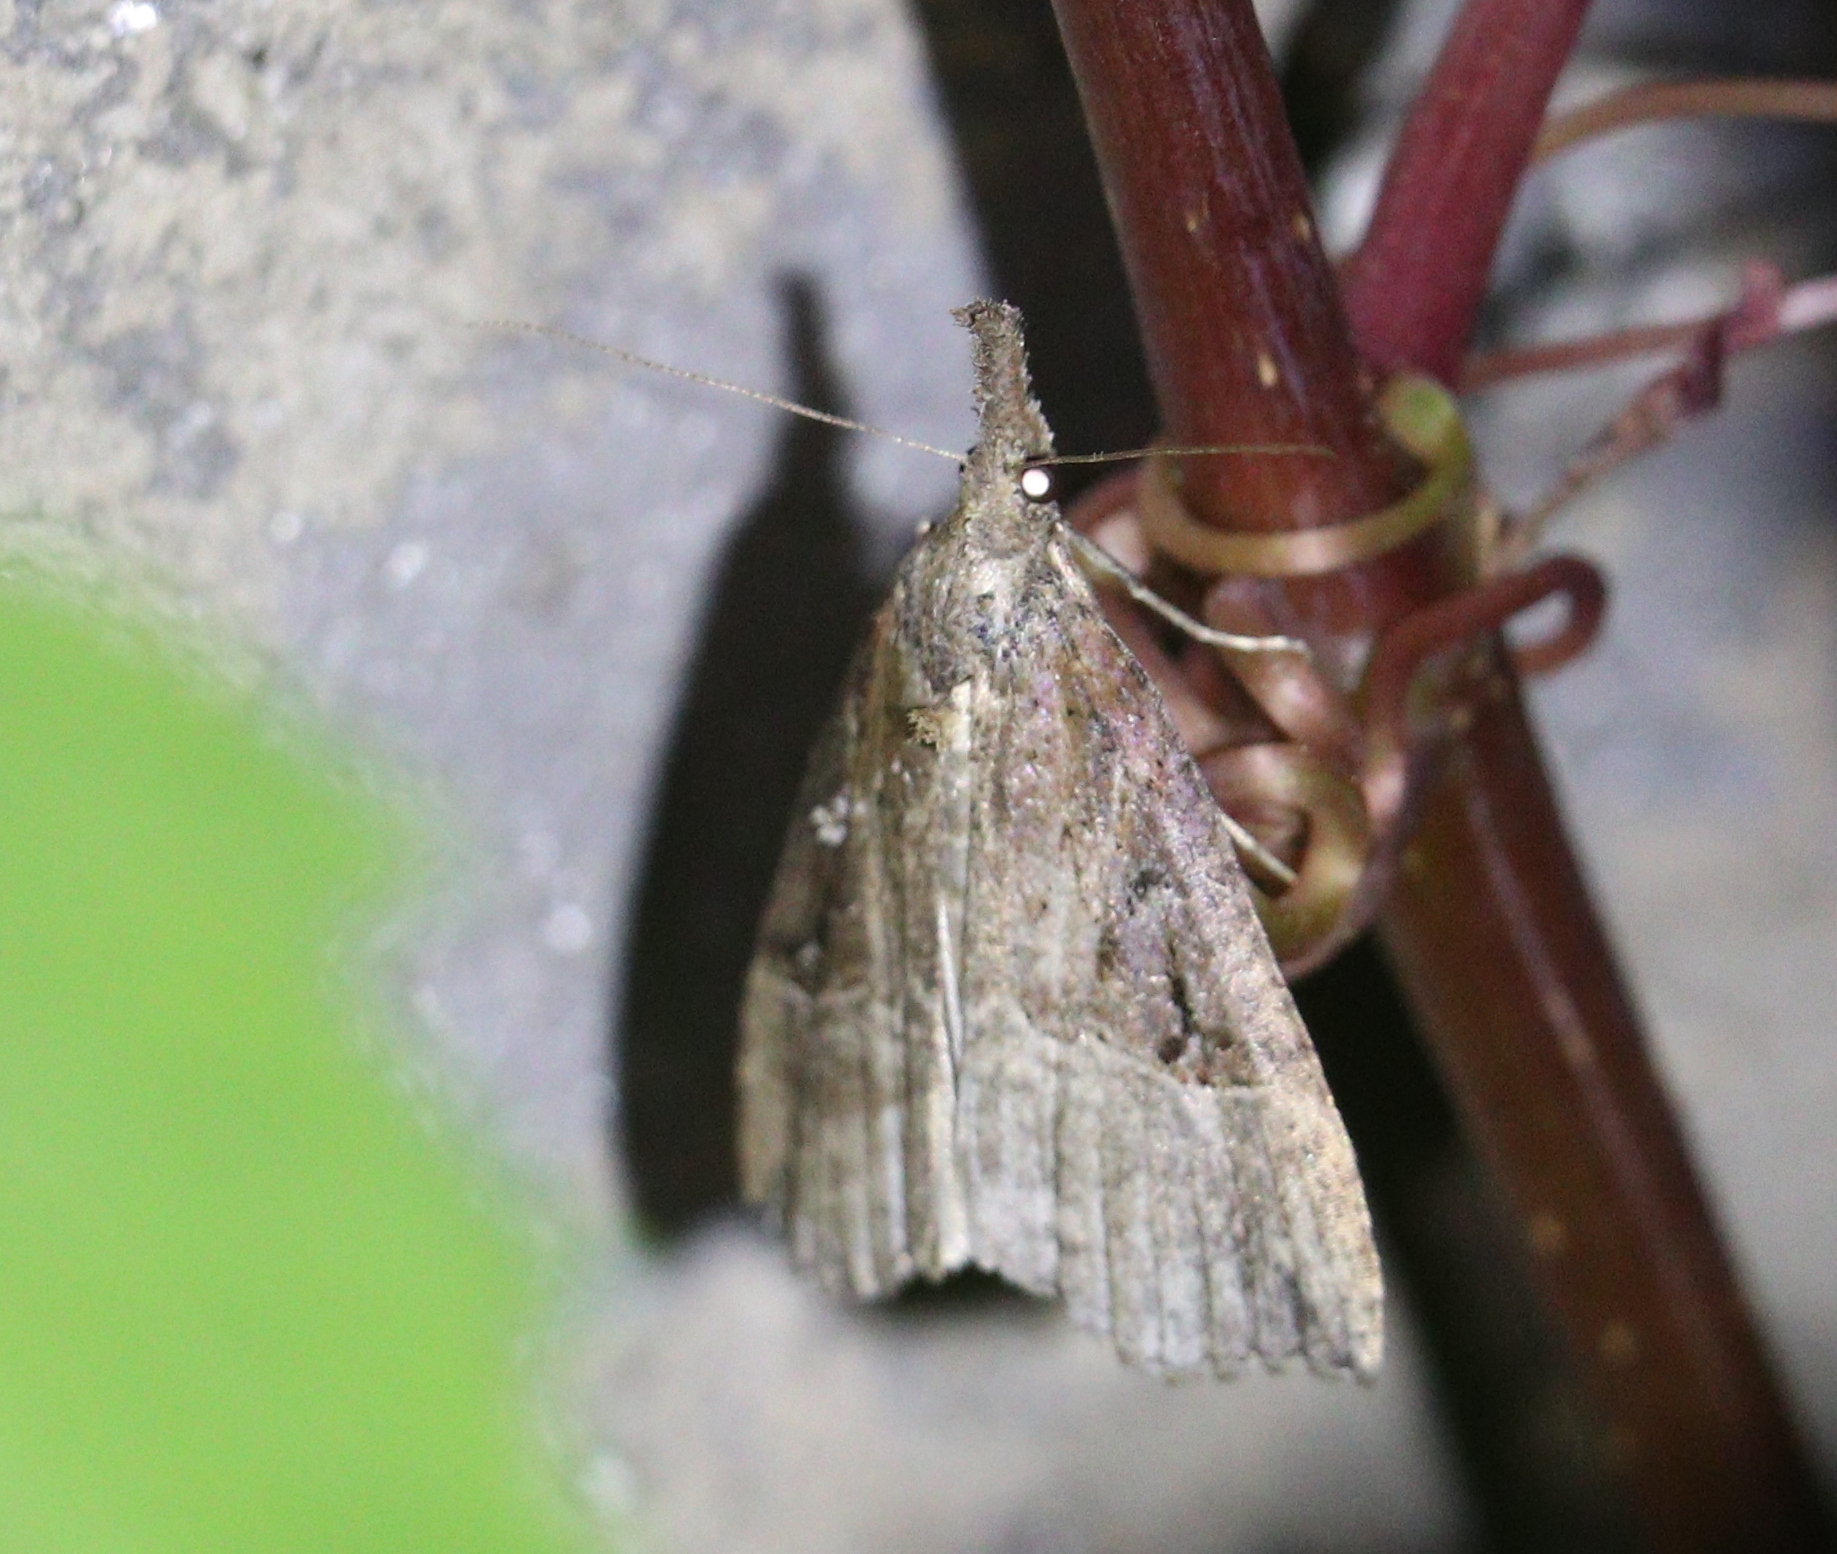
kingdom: Animalia
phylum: Arthropoda
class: Insecta
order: Lepidoptera
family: Erebidae
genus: Hypena
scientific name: Hypena rostralis
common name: Buttoned snout
